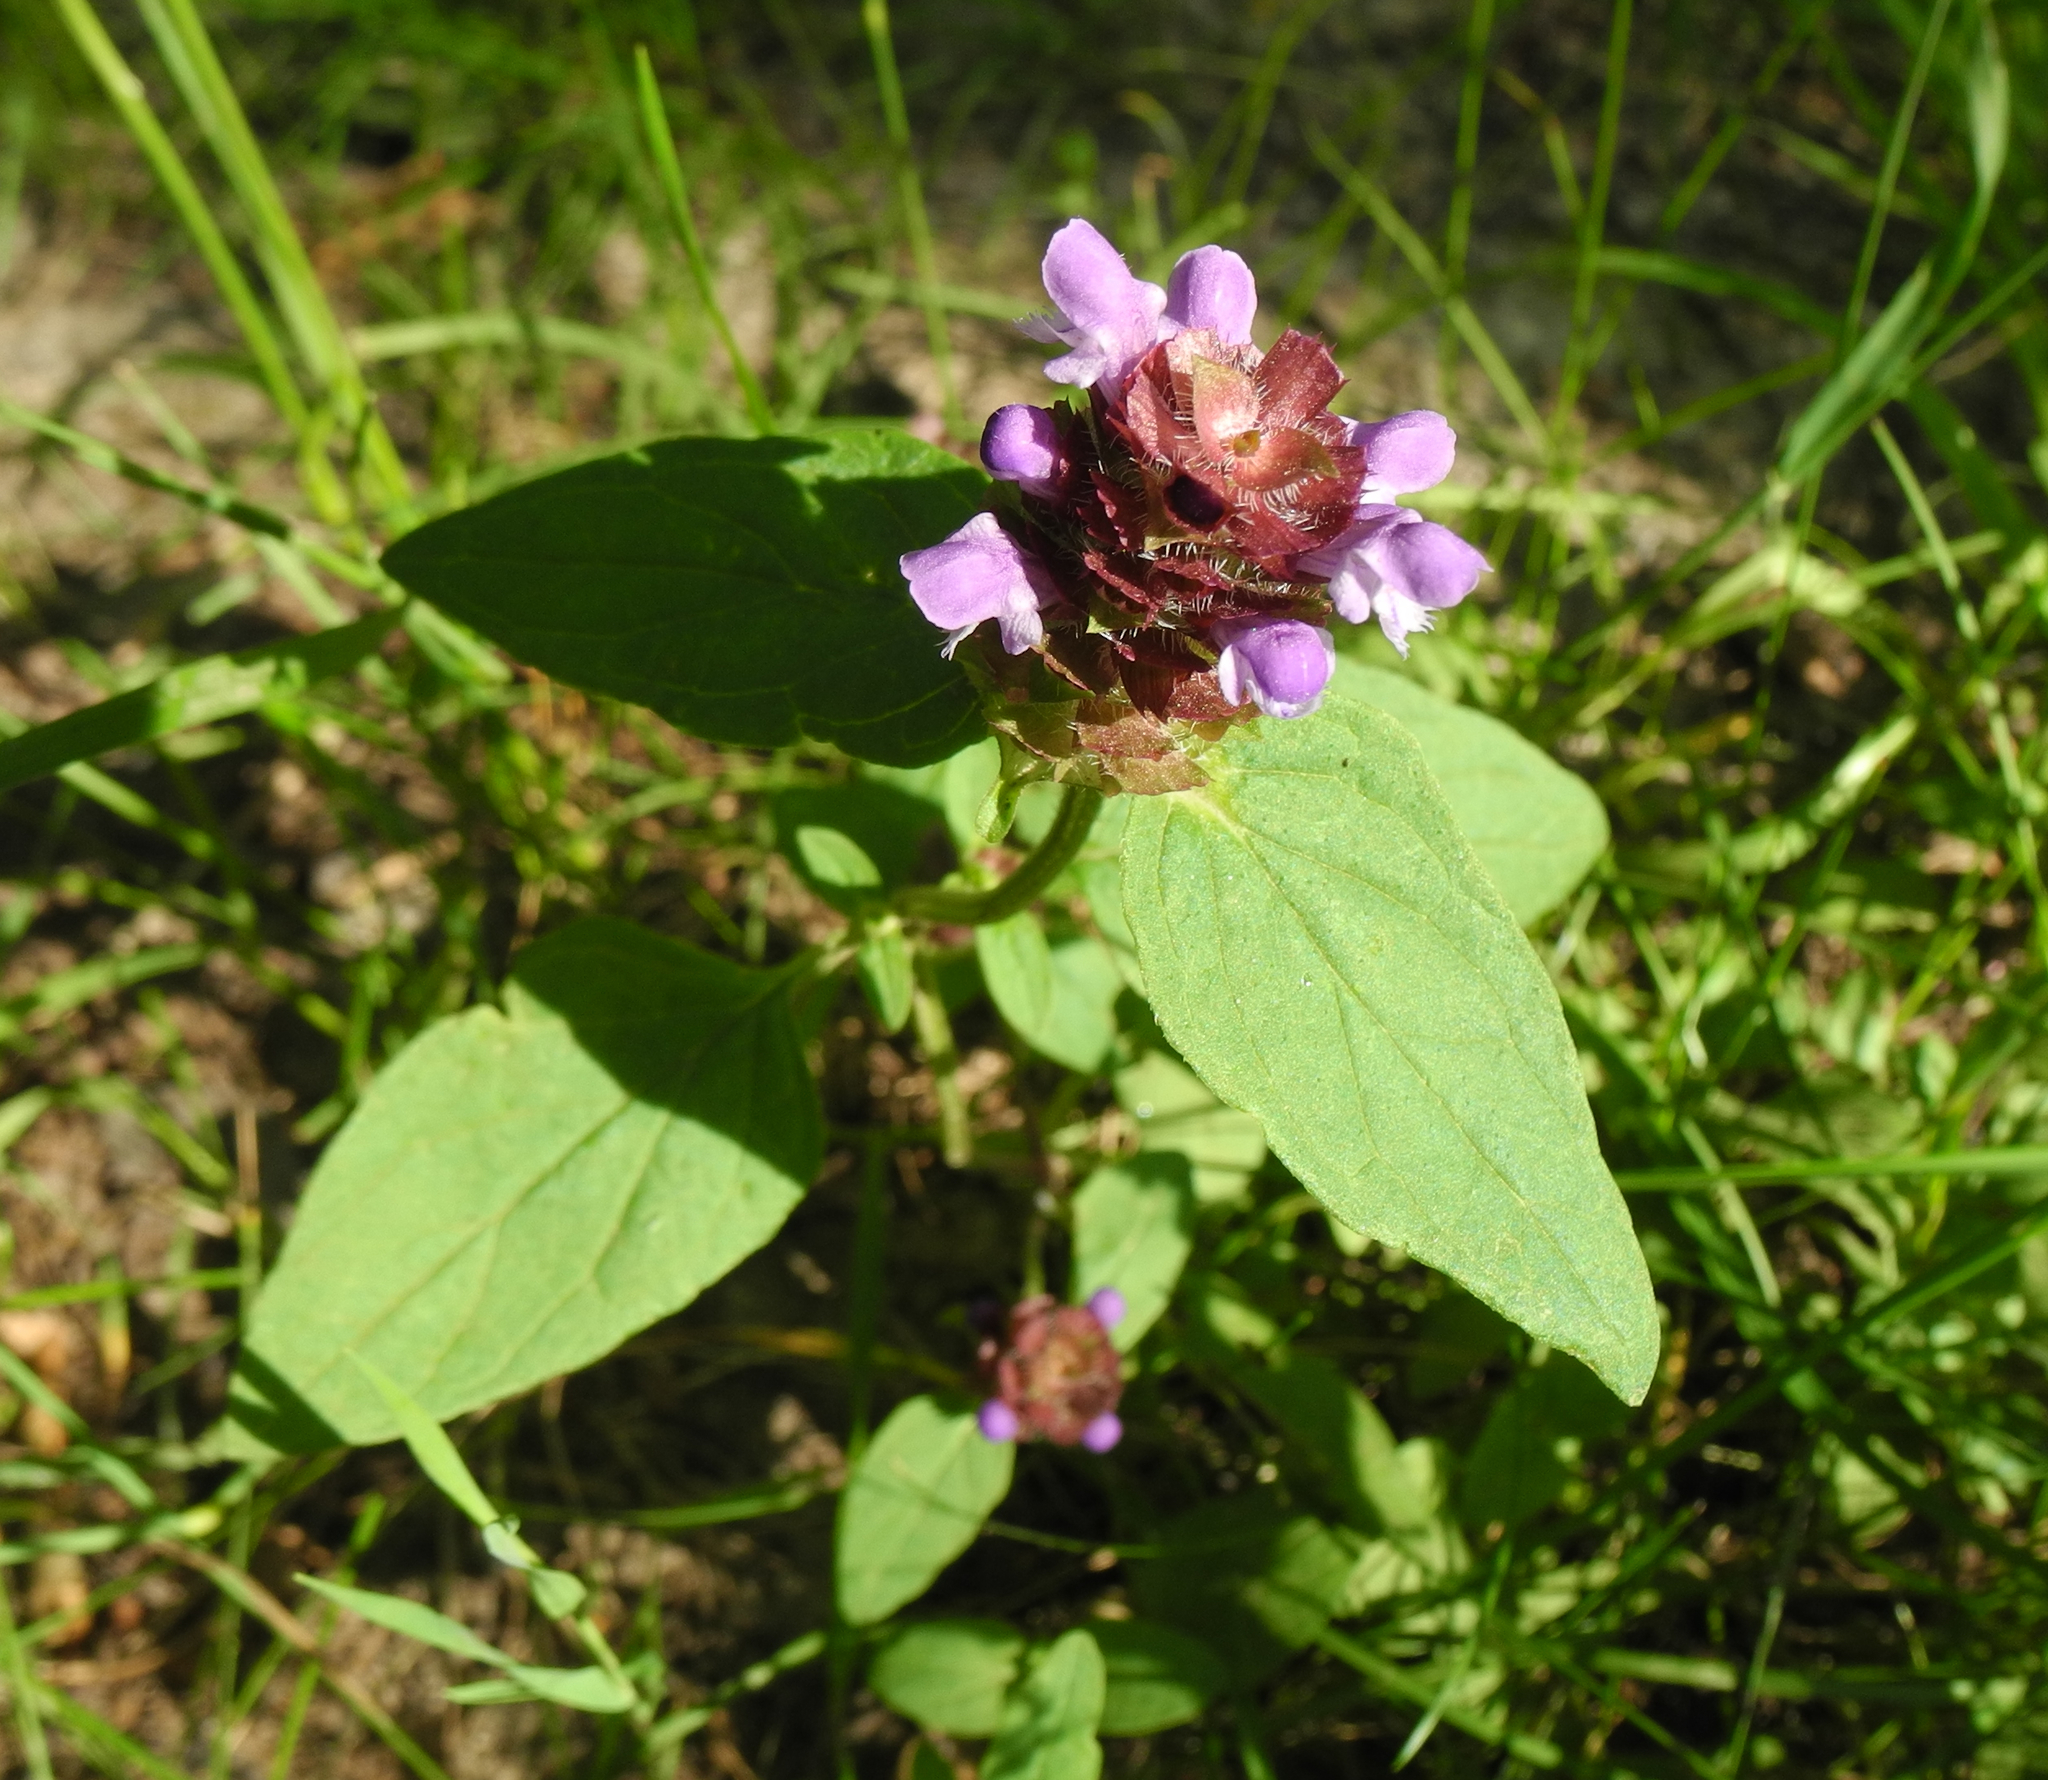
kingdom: Plantae
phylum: Tracheophyta
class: Magnoliopsida
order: Lamiales
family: Lamiaceae
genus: Prunella
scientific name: Prunella vulgaris
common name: Heal-all
